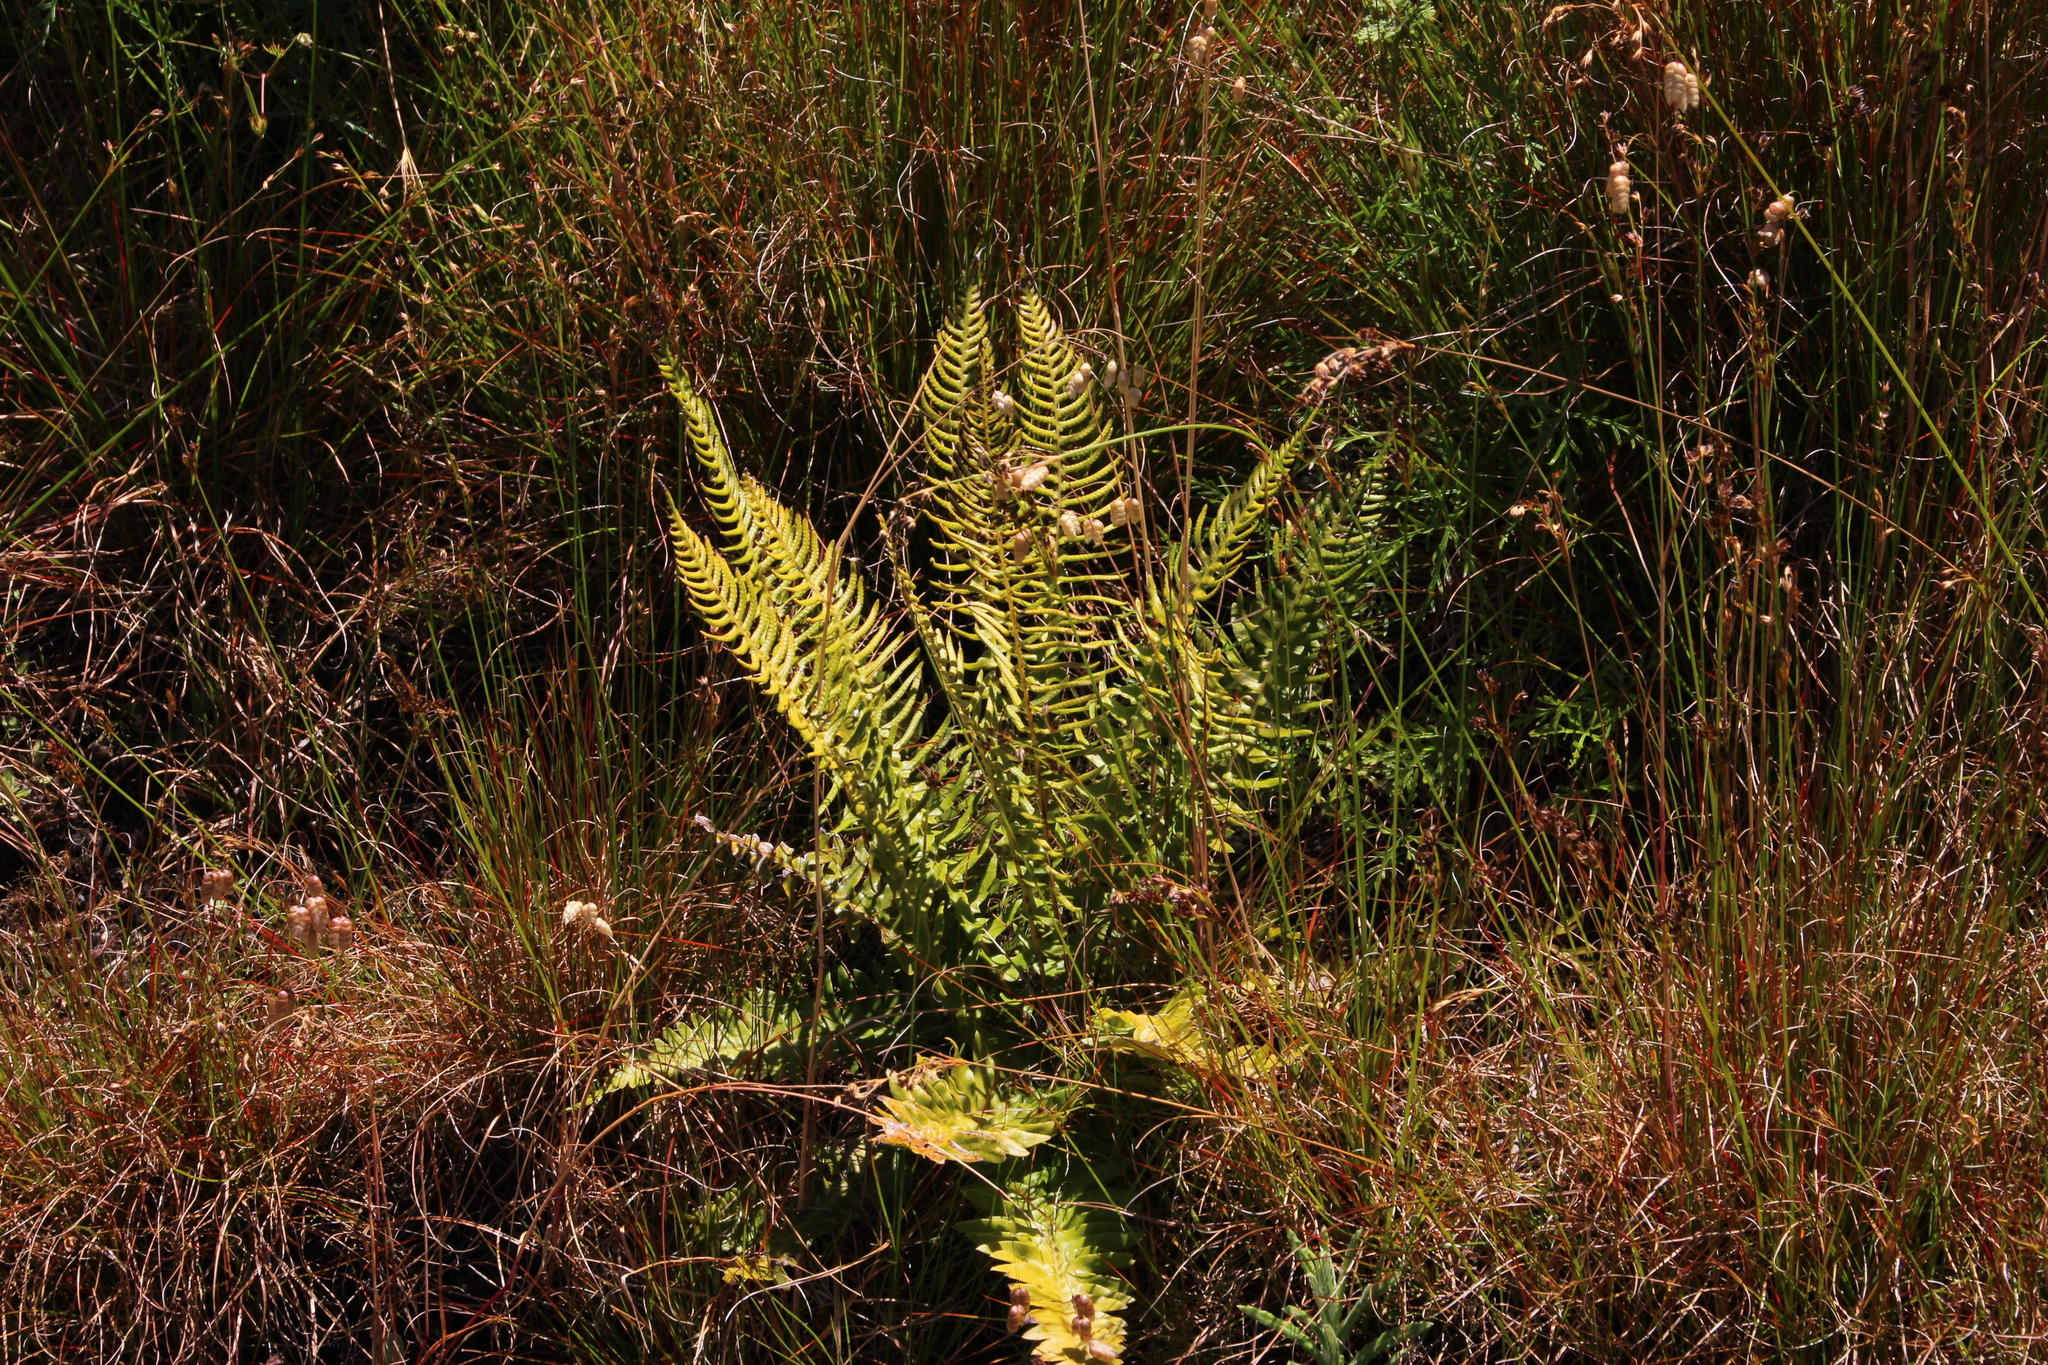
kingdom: Plantae
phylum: Tracheophyta
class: Polypodiopsida
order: Polypodiales
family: Blechnaceae
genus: Lomariocycas
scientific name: Lomariocycas tabularis
